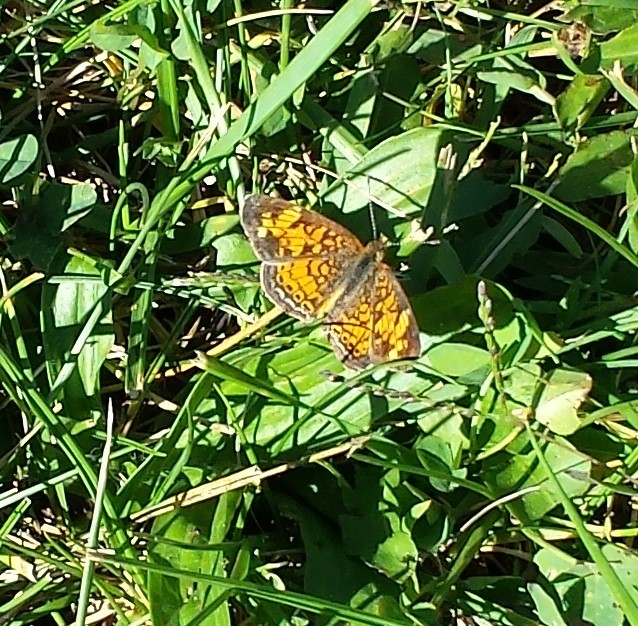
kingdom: Animalia
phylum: Arthropoda
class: Insecta
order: Lepidoptera
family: Nymphalidae
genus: Phyciodes
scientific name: Phyciodes tharos
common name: Pearl crescent
